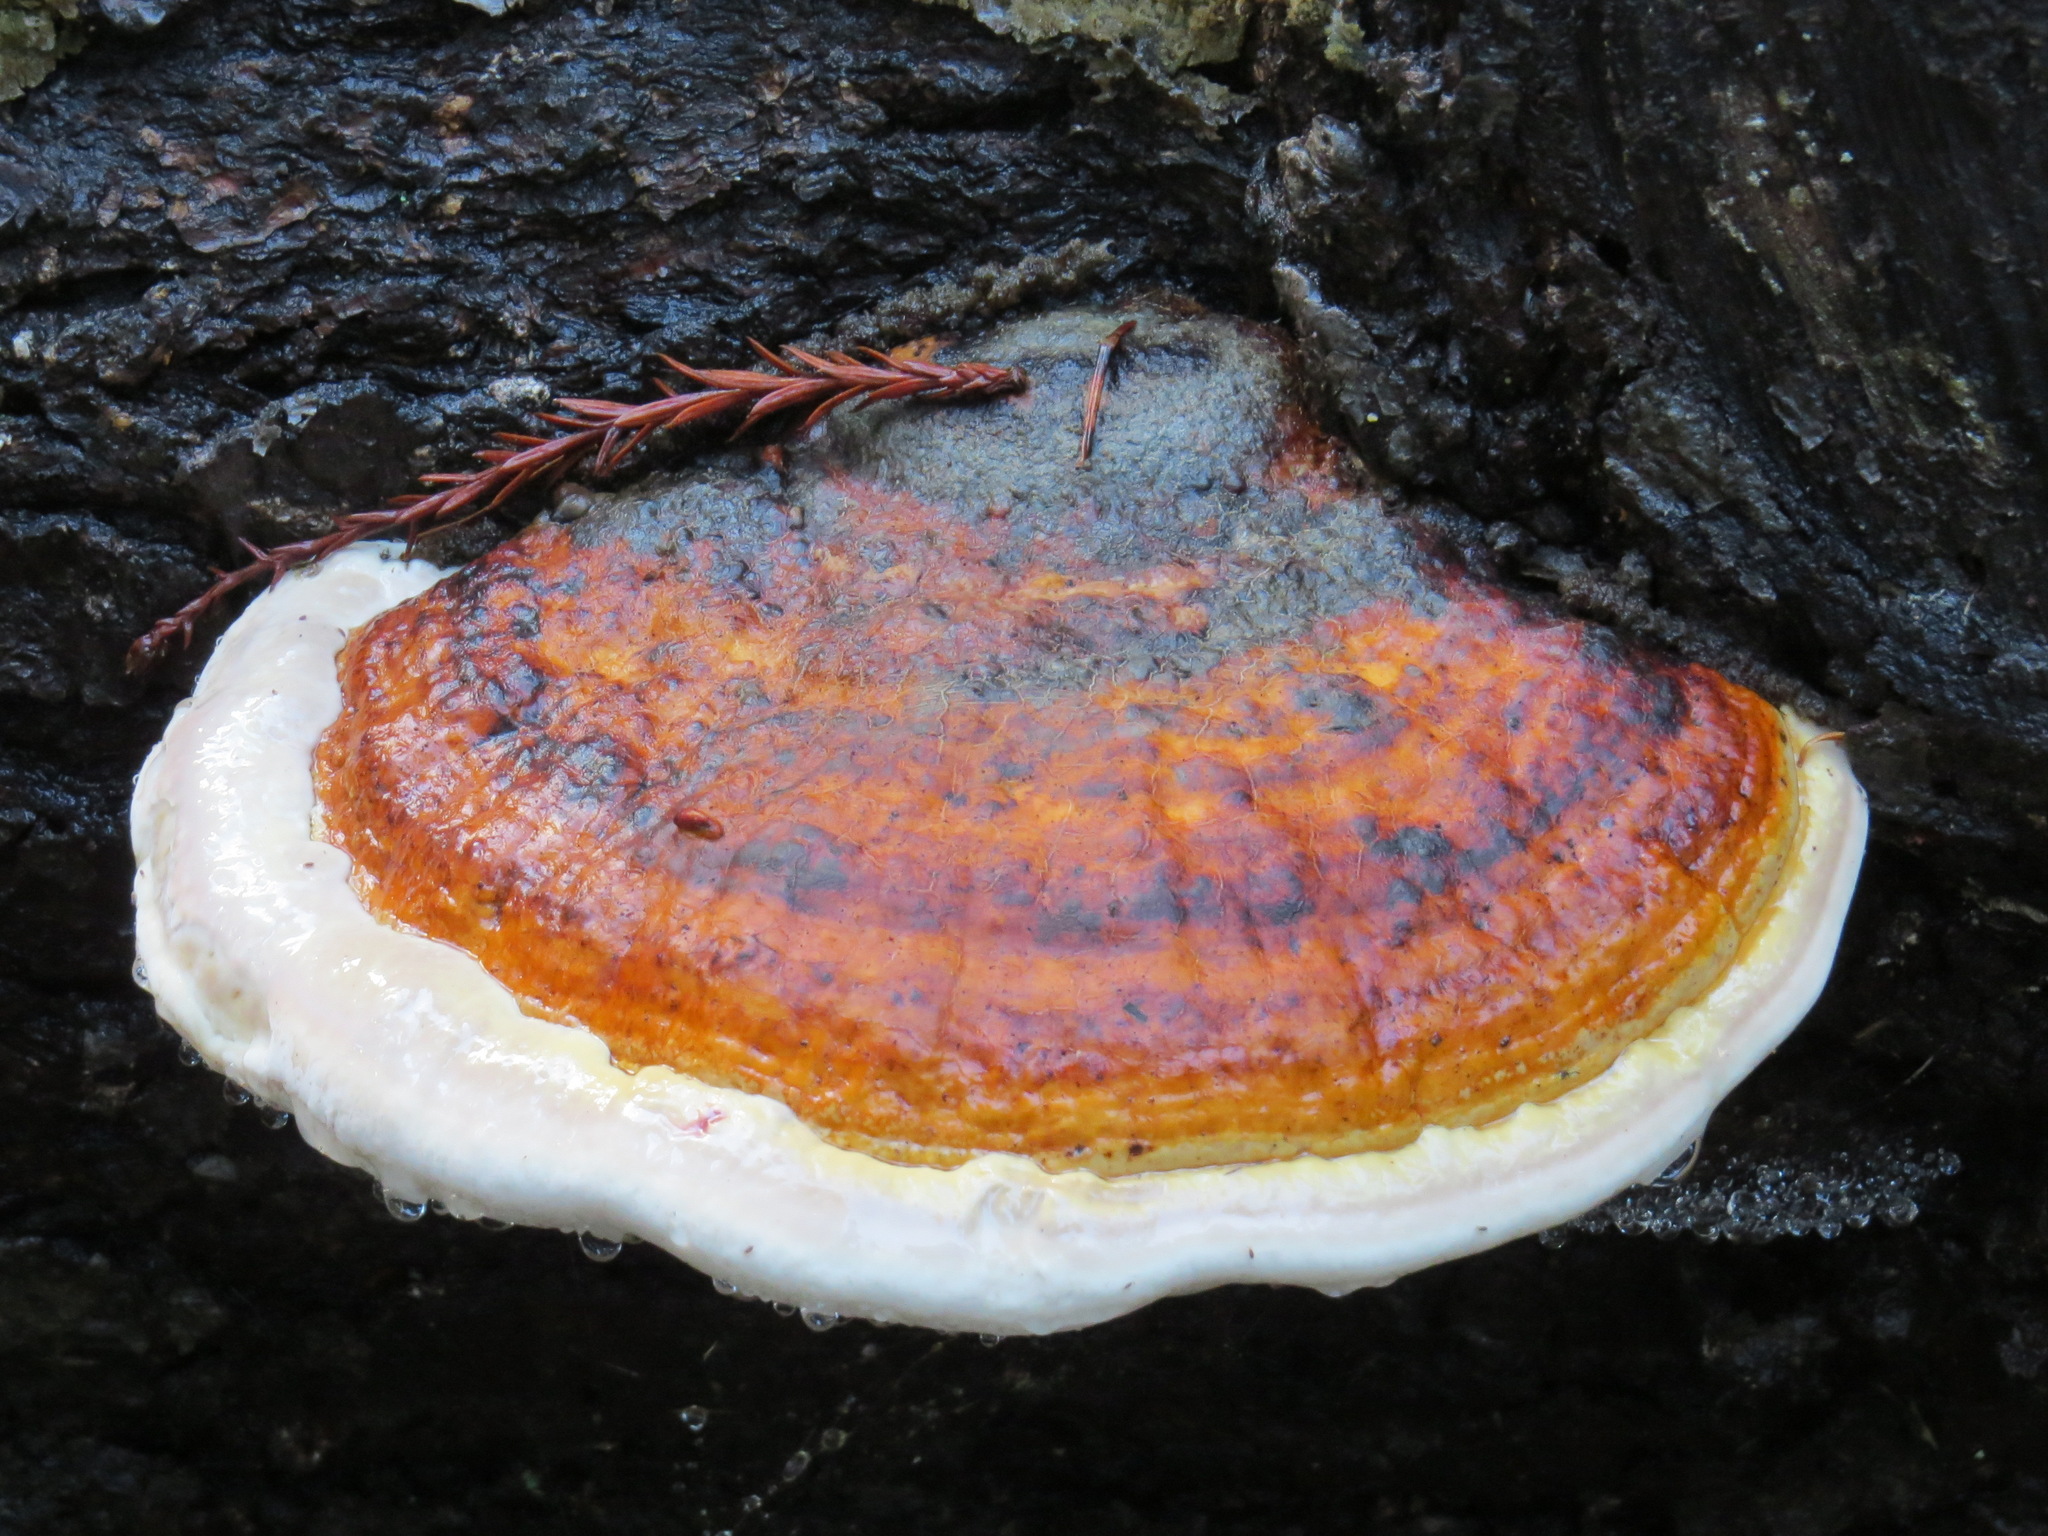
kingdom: Fungi
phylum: Basidiomycota
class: Agaricomycetes
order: Polyporales
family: Fomitopsidaceae
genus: Fomitopsis
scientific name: Fomitopsis mounceae
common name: Northern red belt
